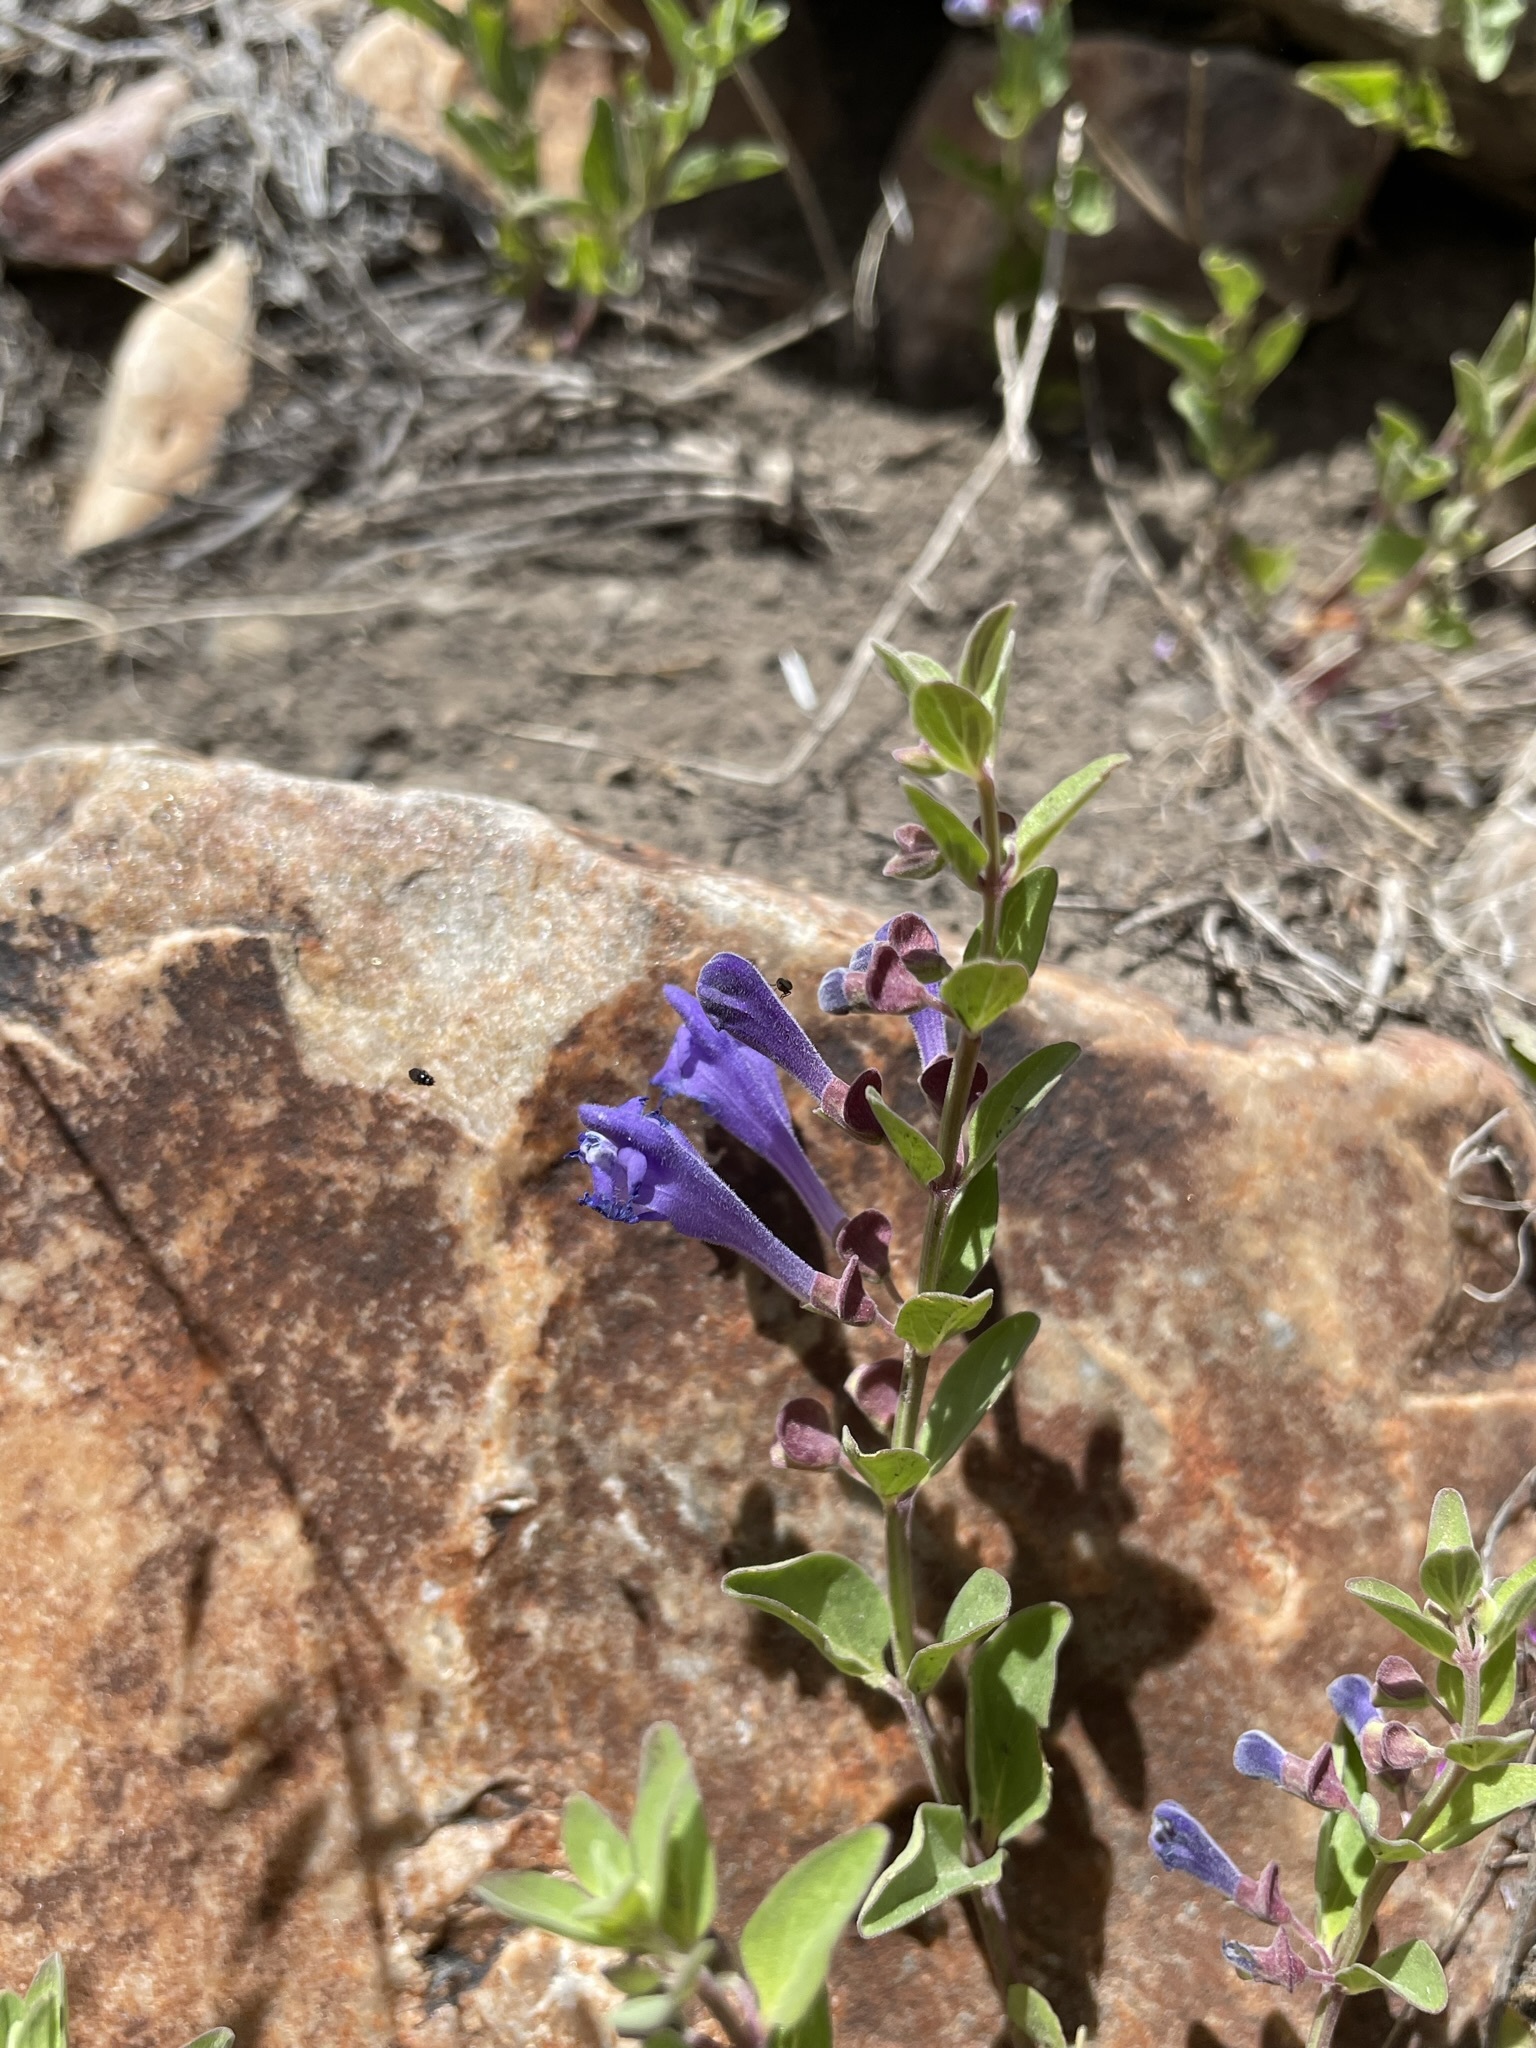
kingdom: Plantae
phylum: Tracheophyta
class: Magnoliopsida
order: Lamiales
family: Lamiaceae
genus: Scutellaria
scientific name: Scutellaria angustifolia
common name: Narrow-leaved skullcap
